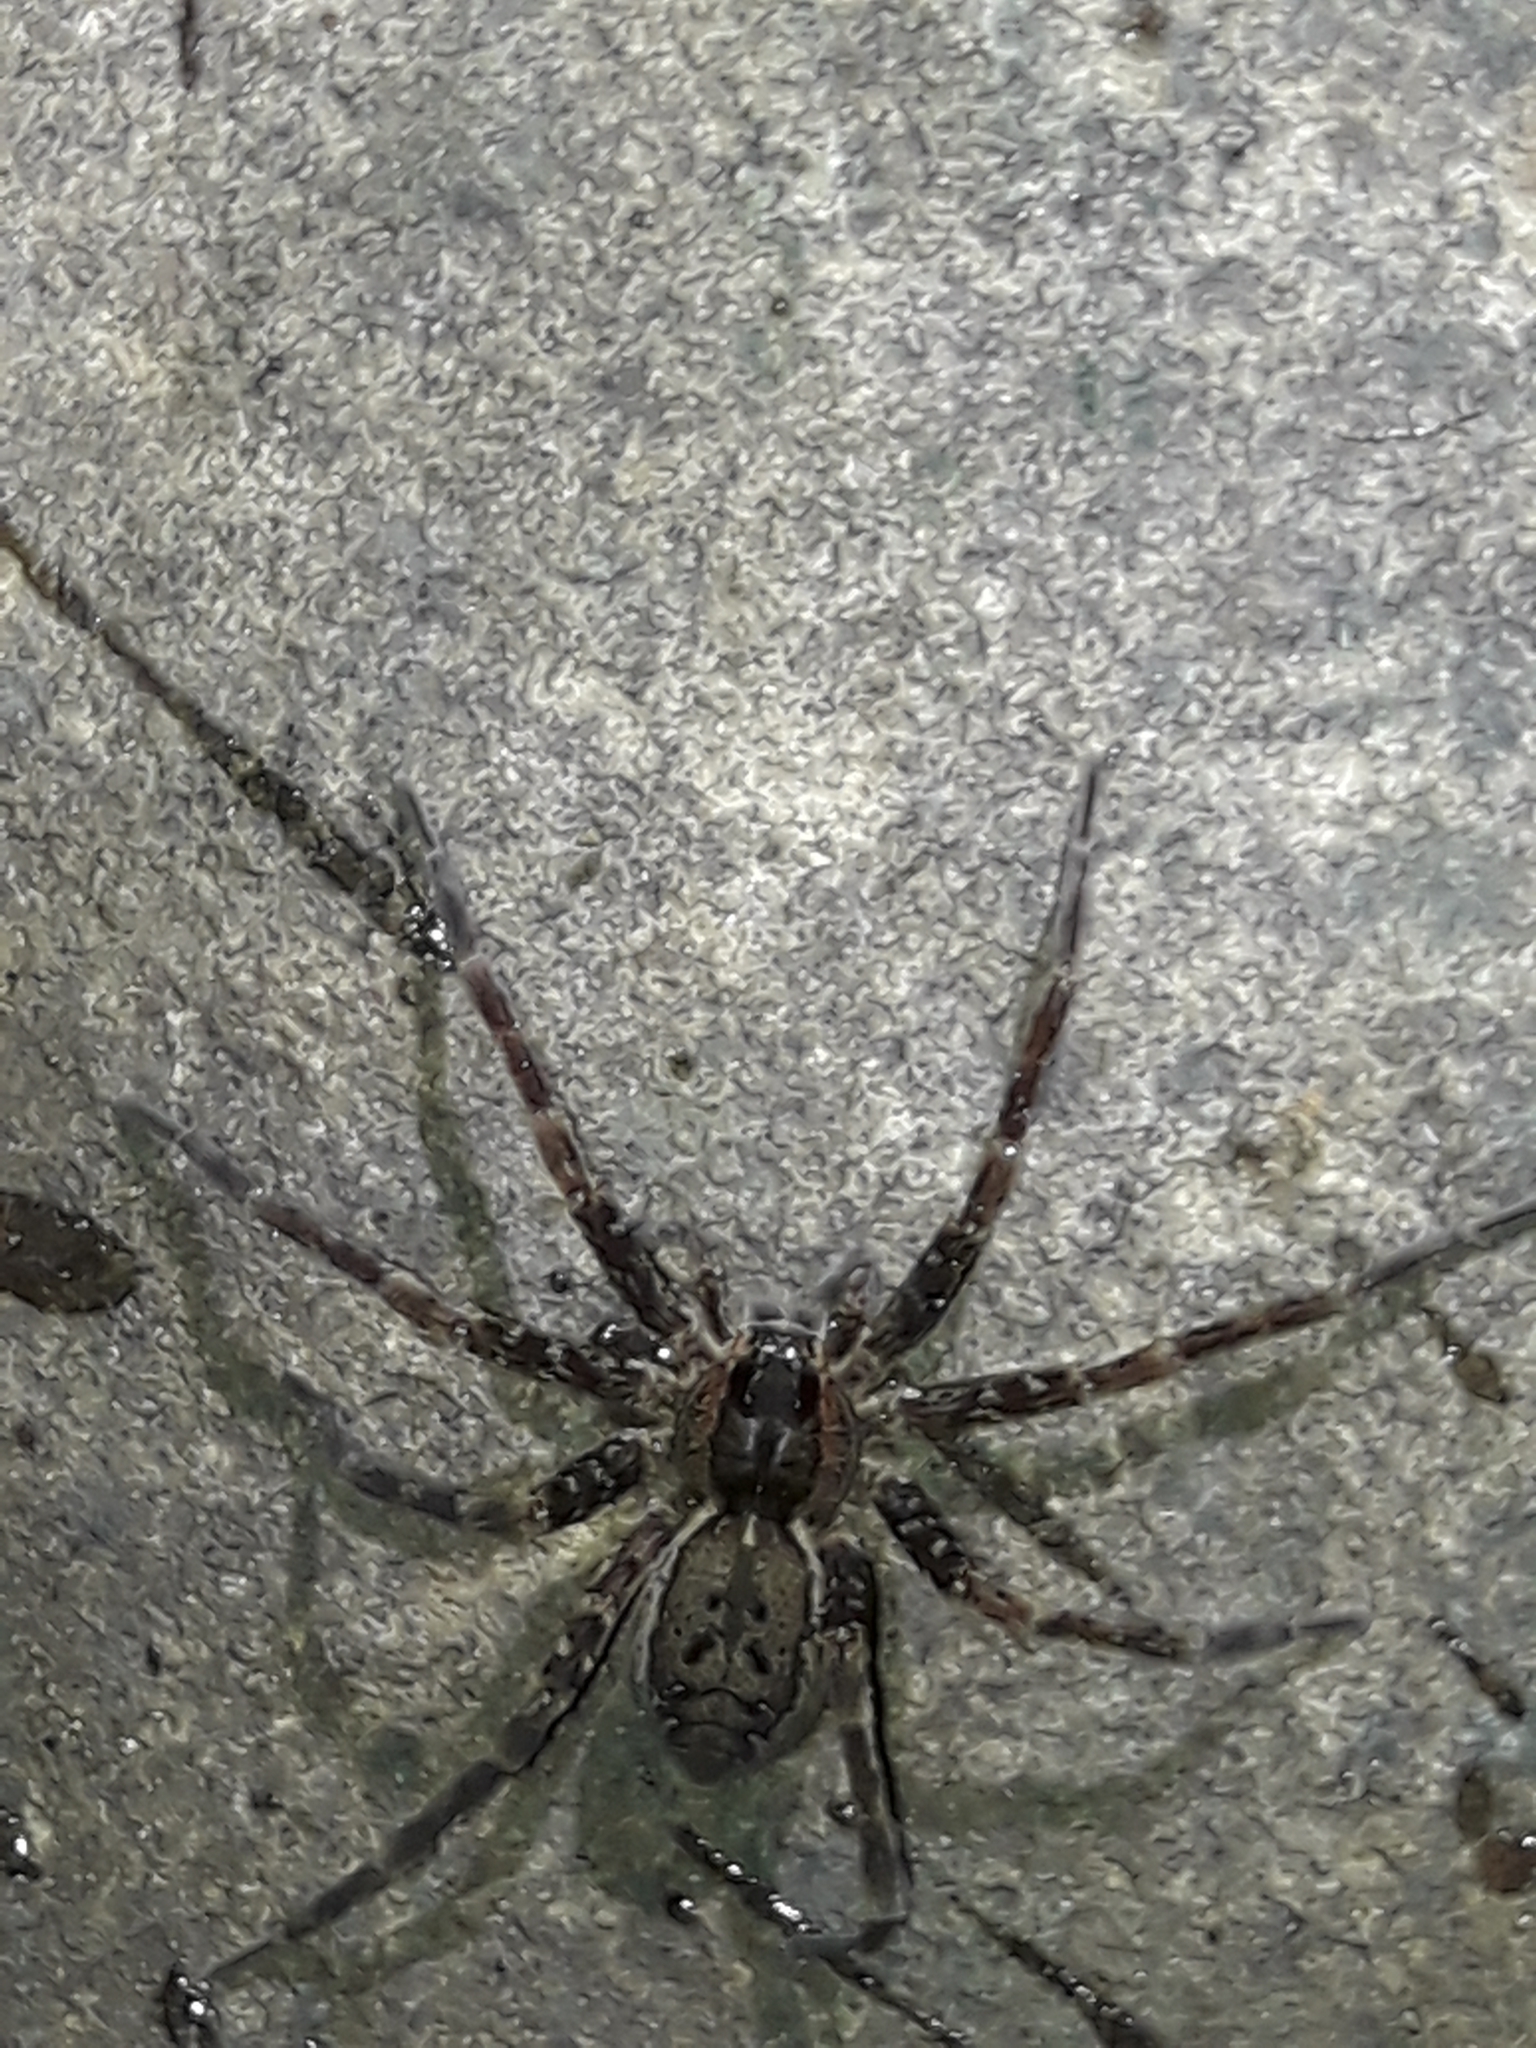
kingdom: Animalia
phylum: Arthropoda
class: Arachnida
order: Araneae
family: Pisauridae
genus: Dolomedes
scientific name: Dolomedes dondalei
